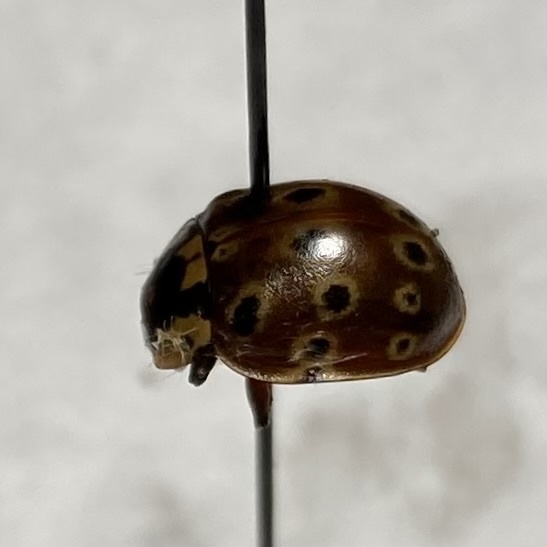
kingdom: Animalia
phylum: Arthropoda
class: Insecta
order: Coleoptera
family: Coccinellidae
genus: Anatis
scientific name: Anatis mali
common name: Eye-spotted lady beetle
